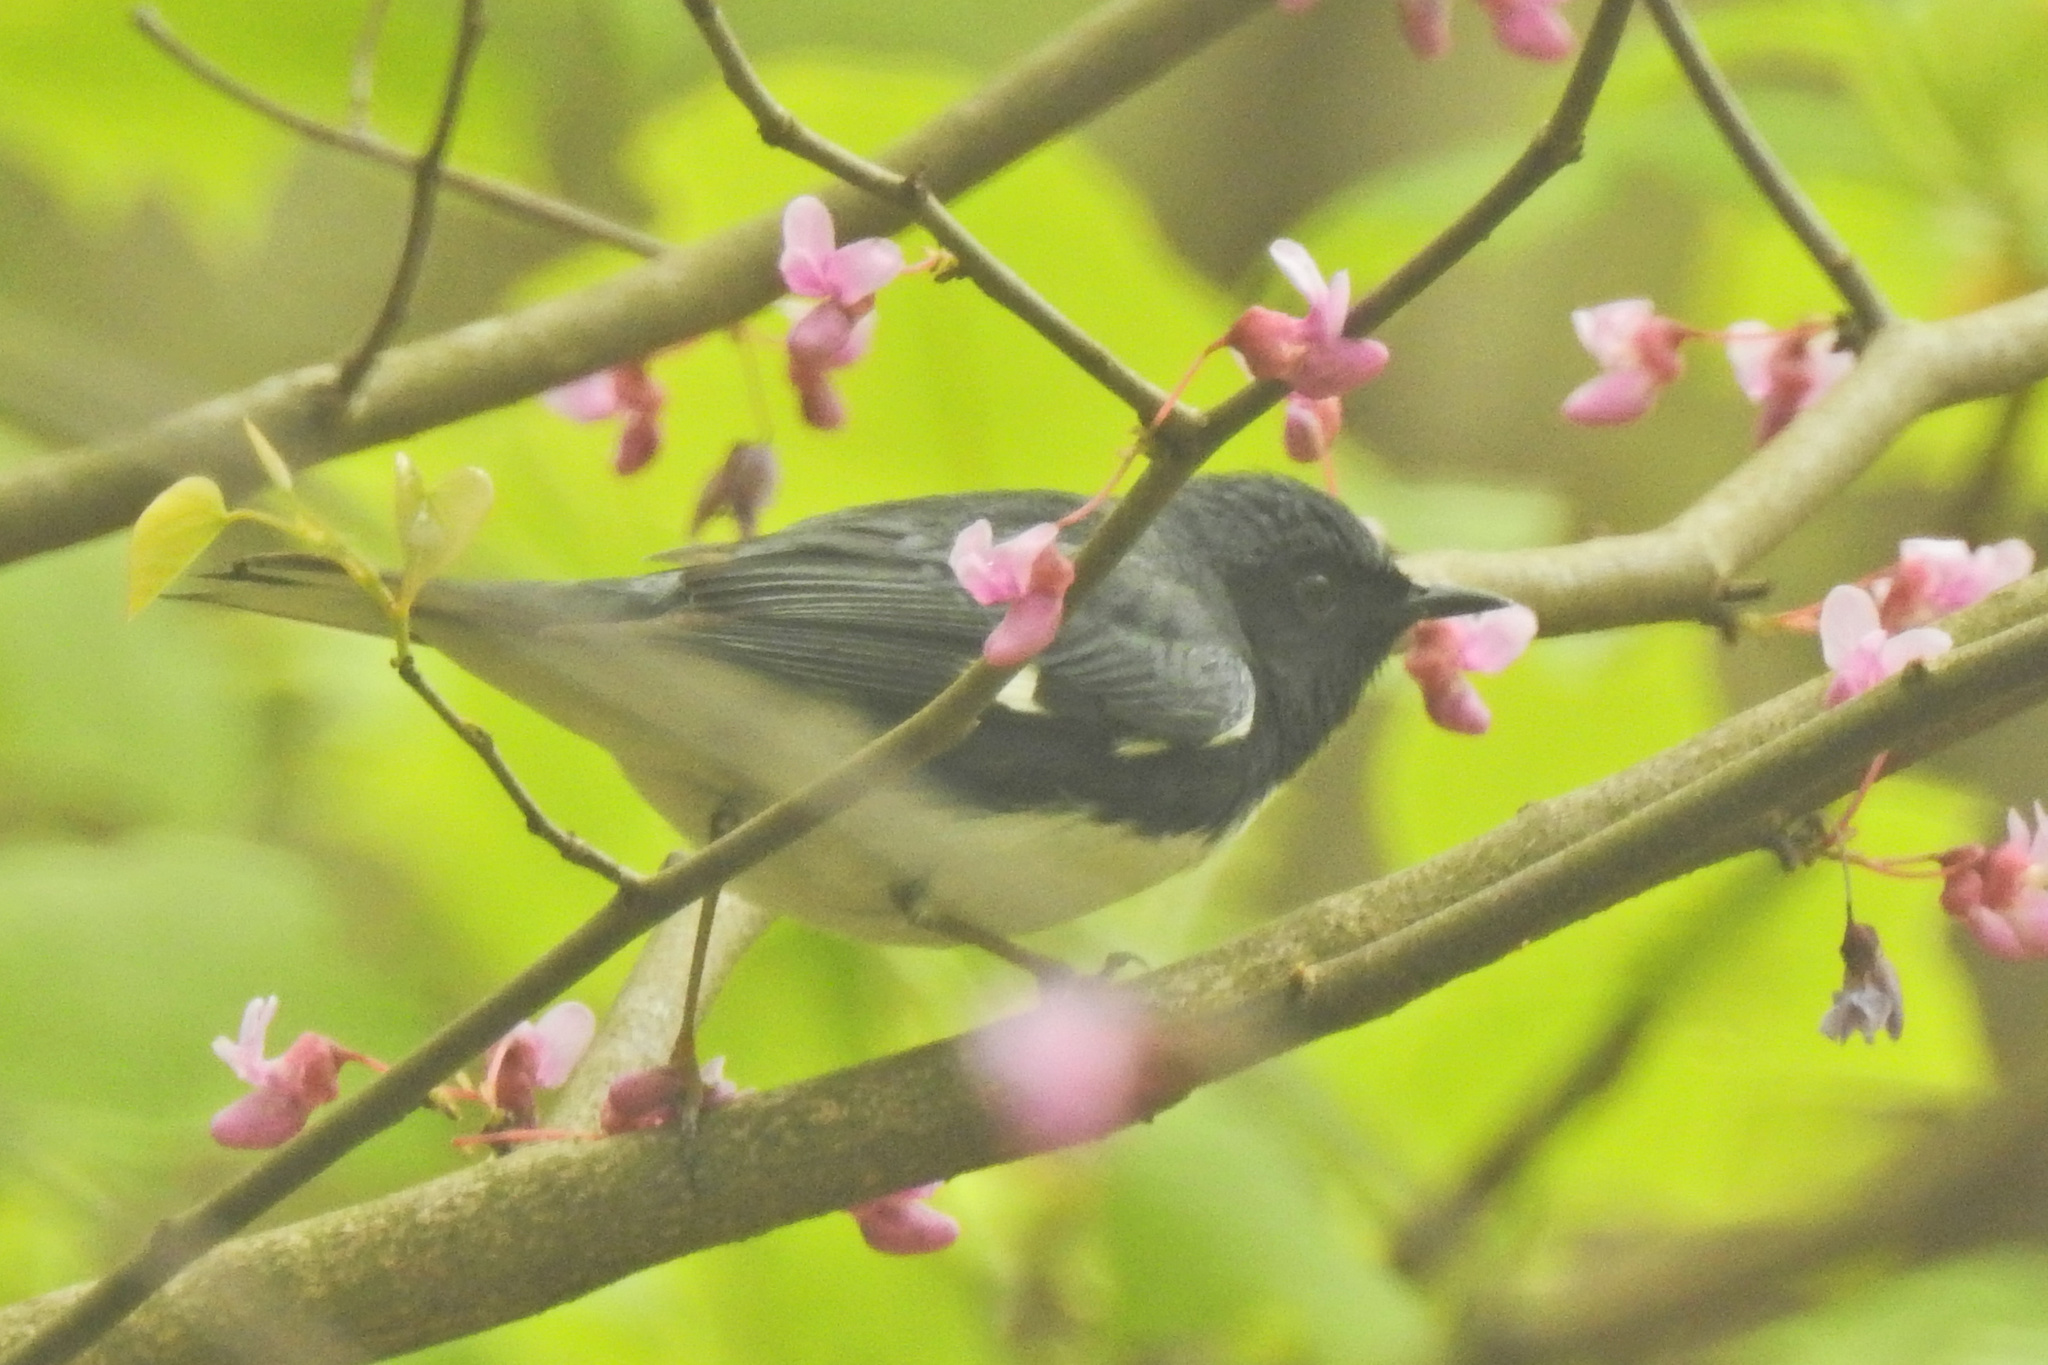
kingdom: Animalia
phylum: Chordata
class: Aves
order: Passeriformes
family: Parulidae
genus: Setophaga
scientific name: Setophaga caerulescens
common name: Black-throated blue warbler
